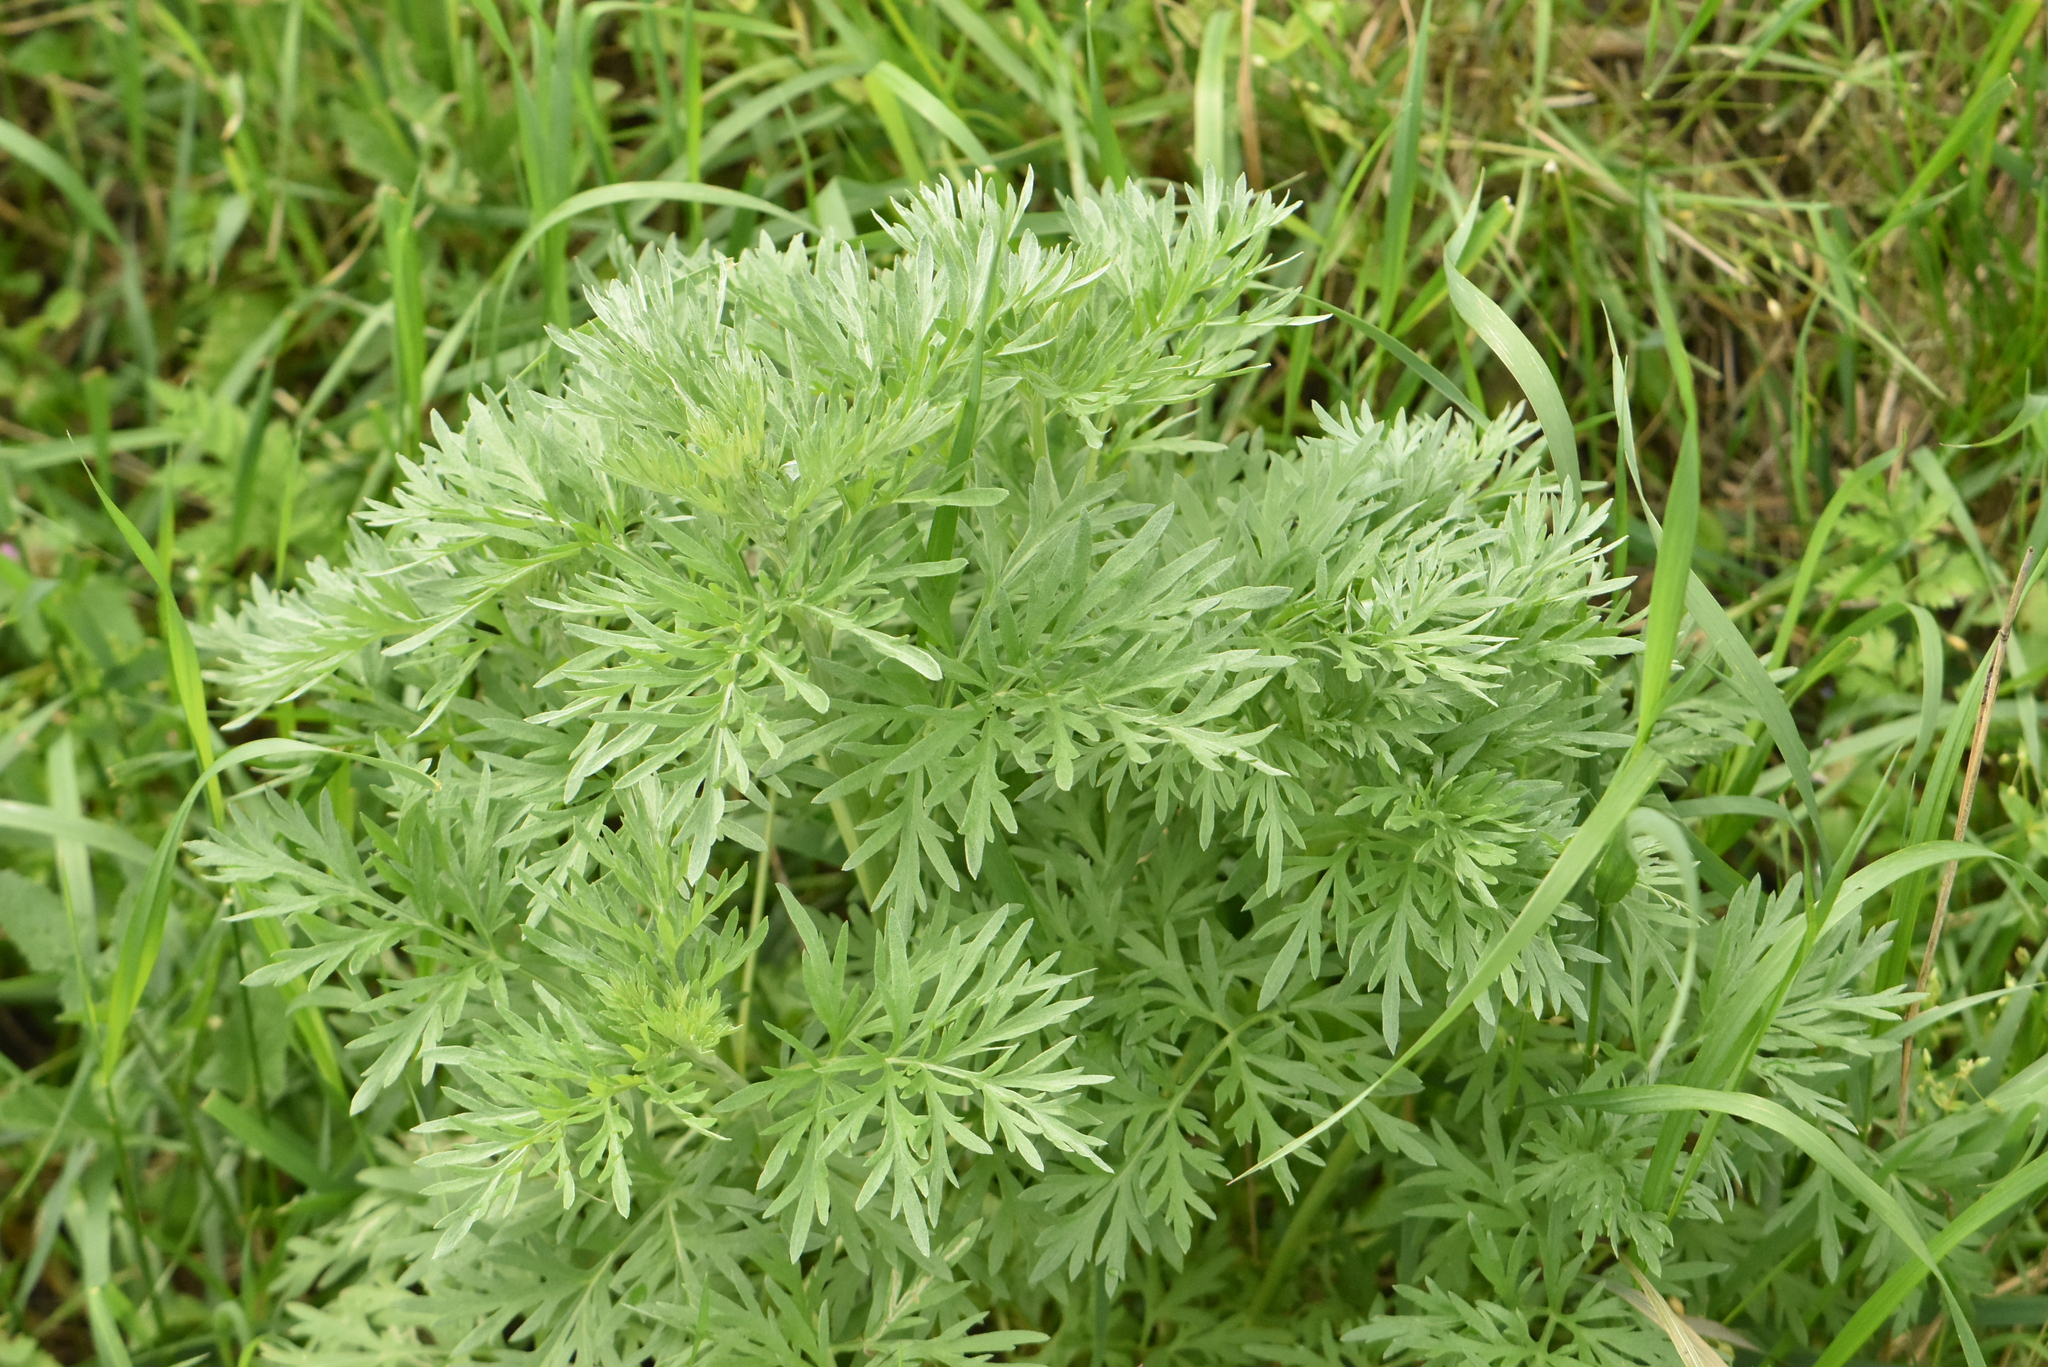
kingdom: Plantae
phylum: Tracheophyta
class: Magnoliopsida
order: Asterales
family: Asteraceae
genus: Artemisia
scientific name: Artemisia absinthium
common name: Wormwood
